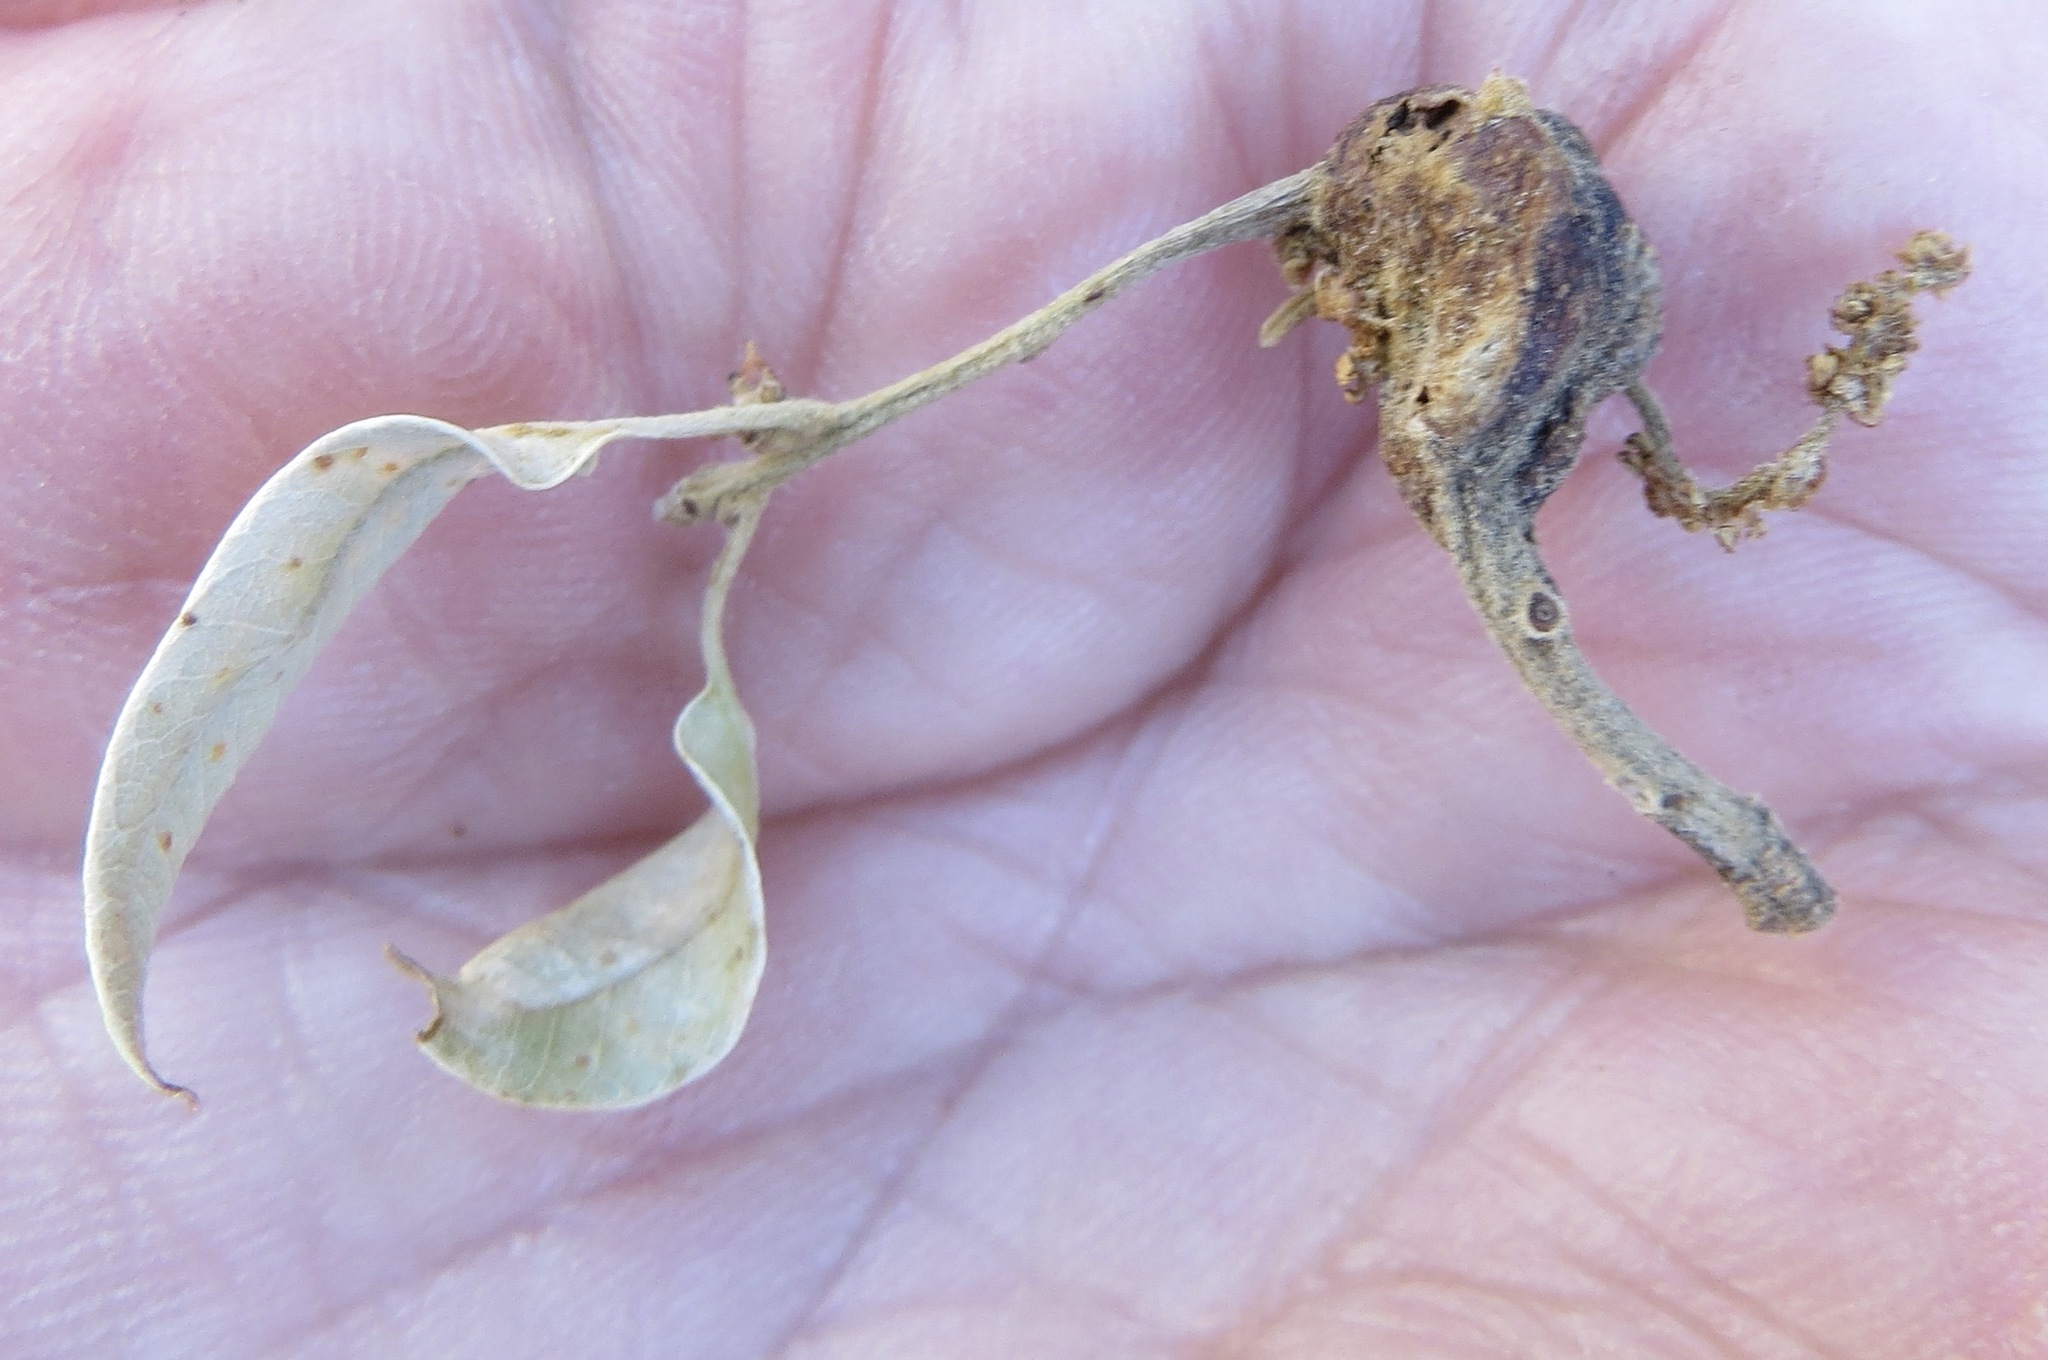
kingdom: Animalia
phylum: Arthropoda
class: Insecta
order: Hymenoptera
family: Cynipidae
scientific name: Cynipidae
